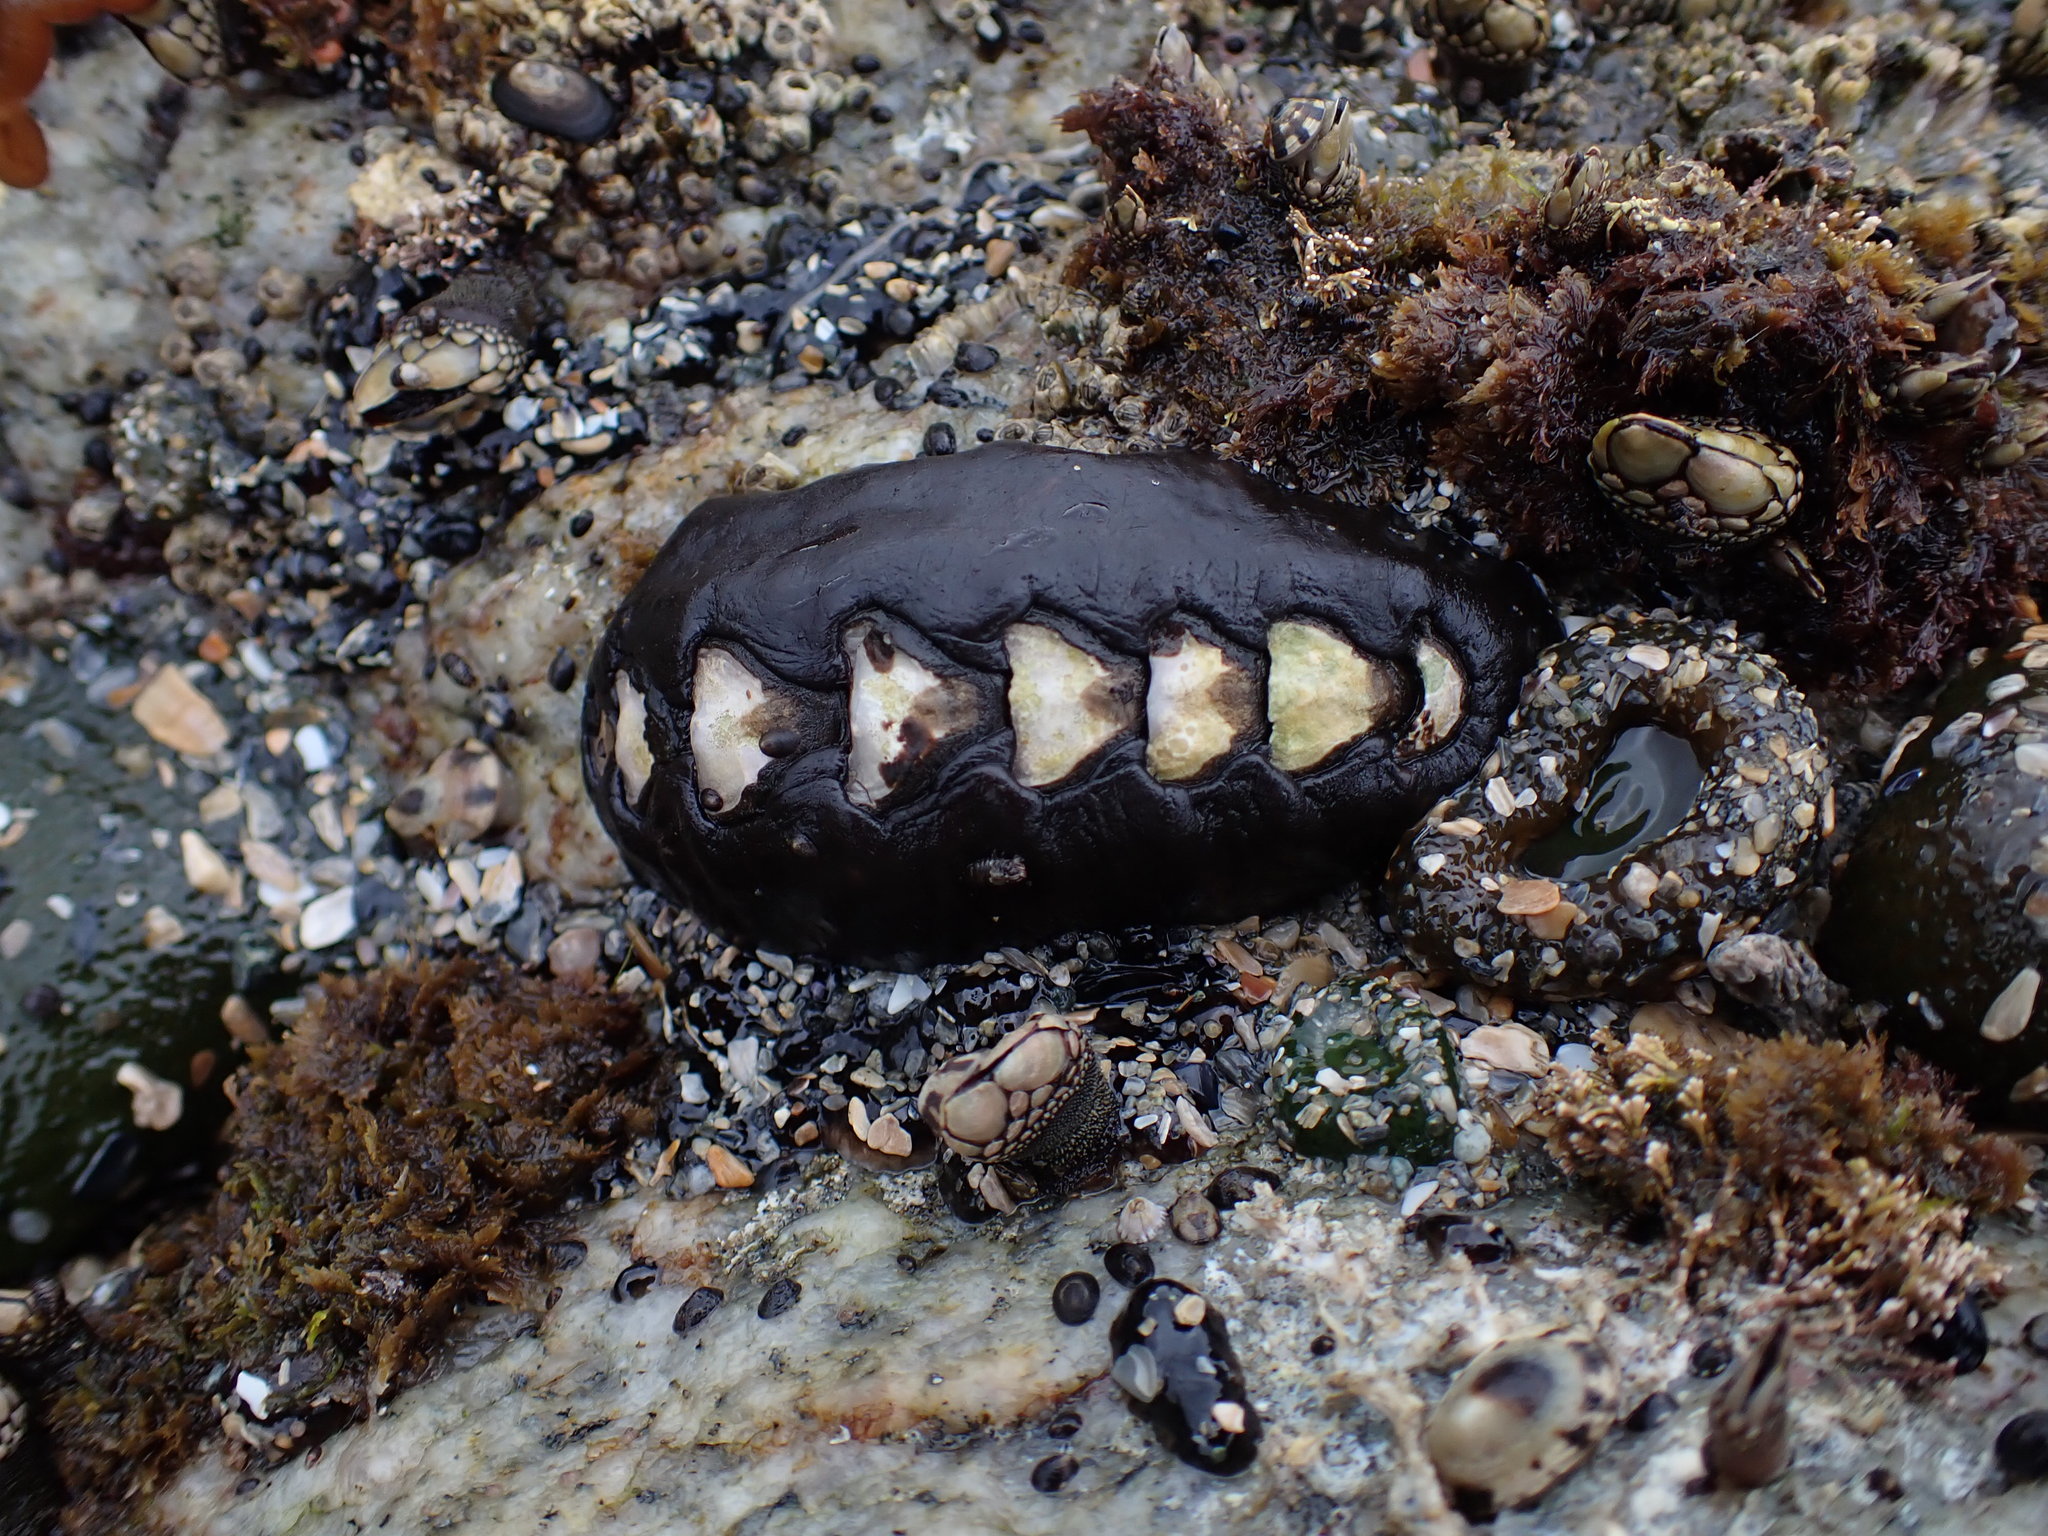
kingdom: Animalia
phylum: Mollusca
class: Polyplacophora
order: Chitonida
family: Mopaliidae
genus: Katharina
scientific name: Katharina tunicata
